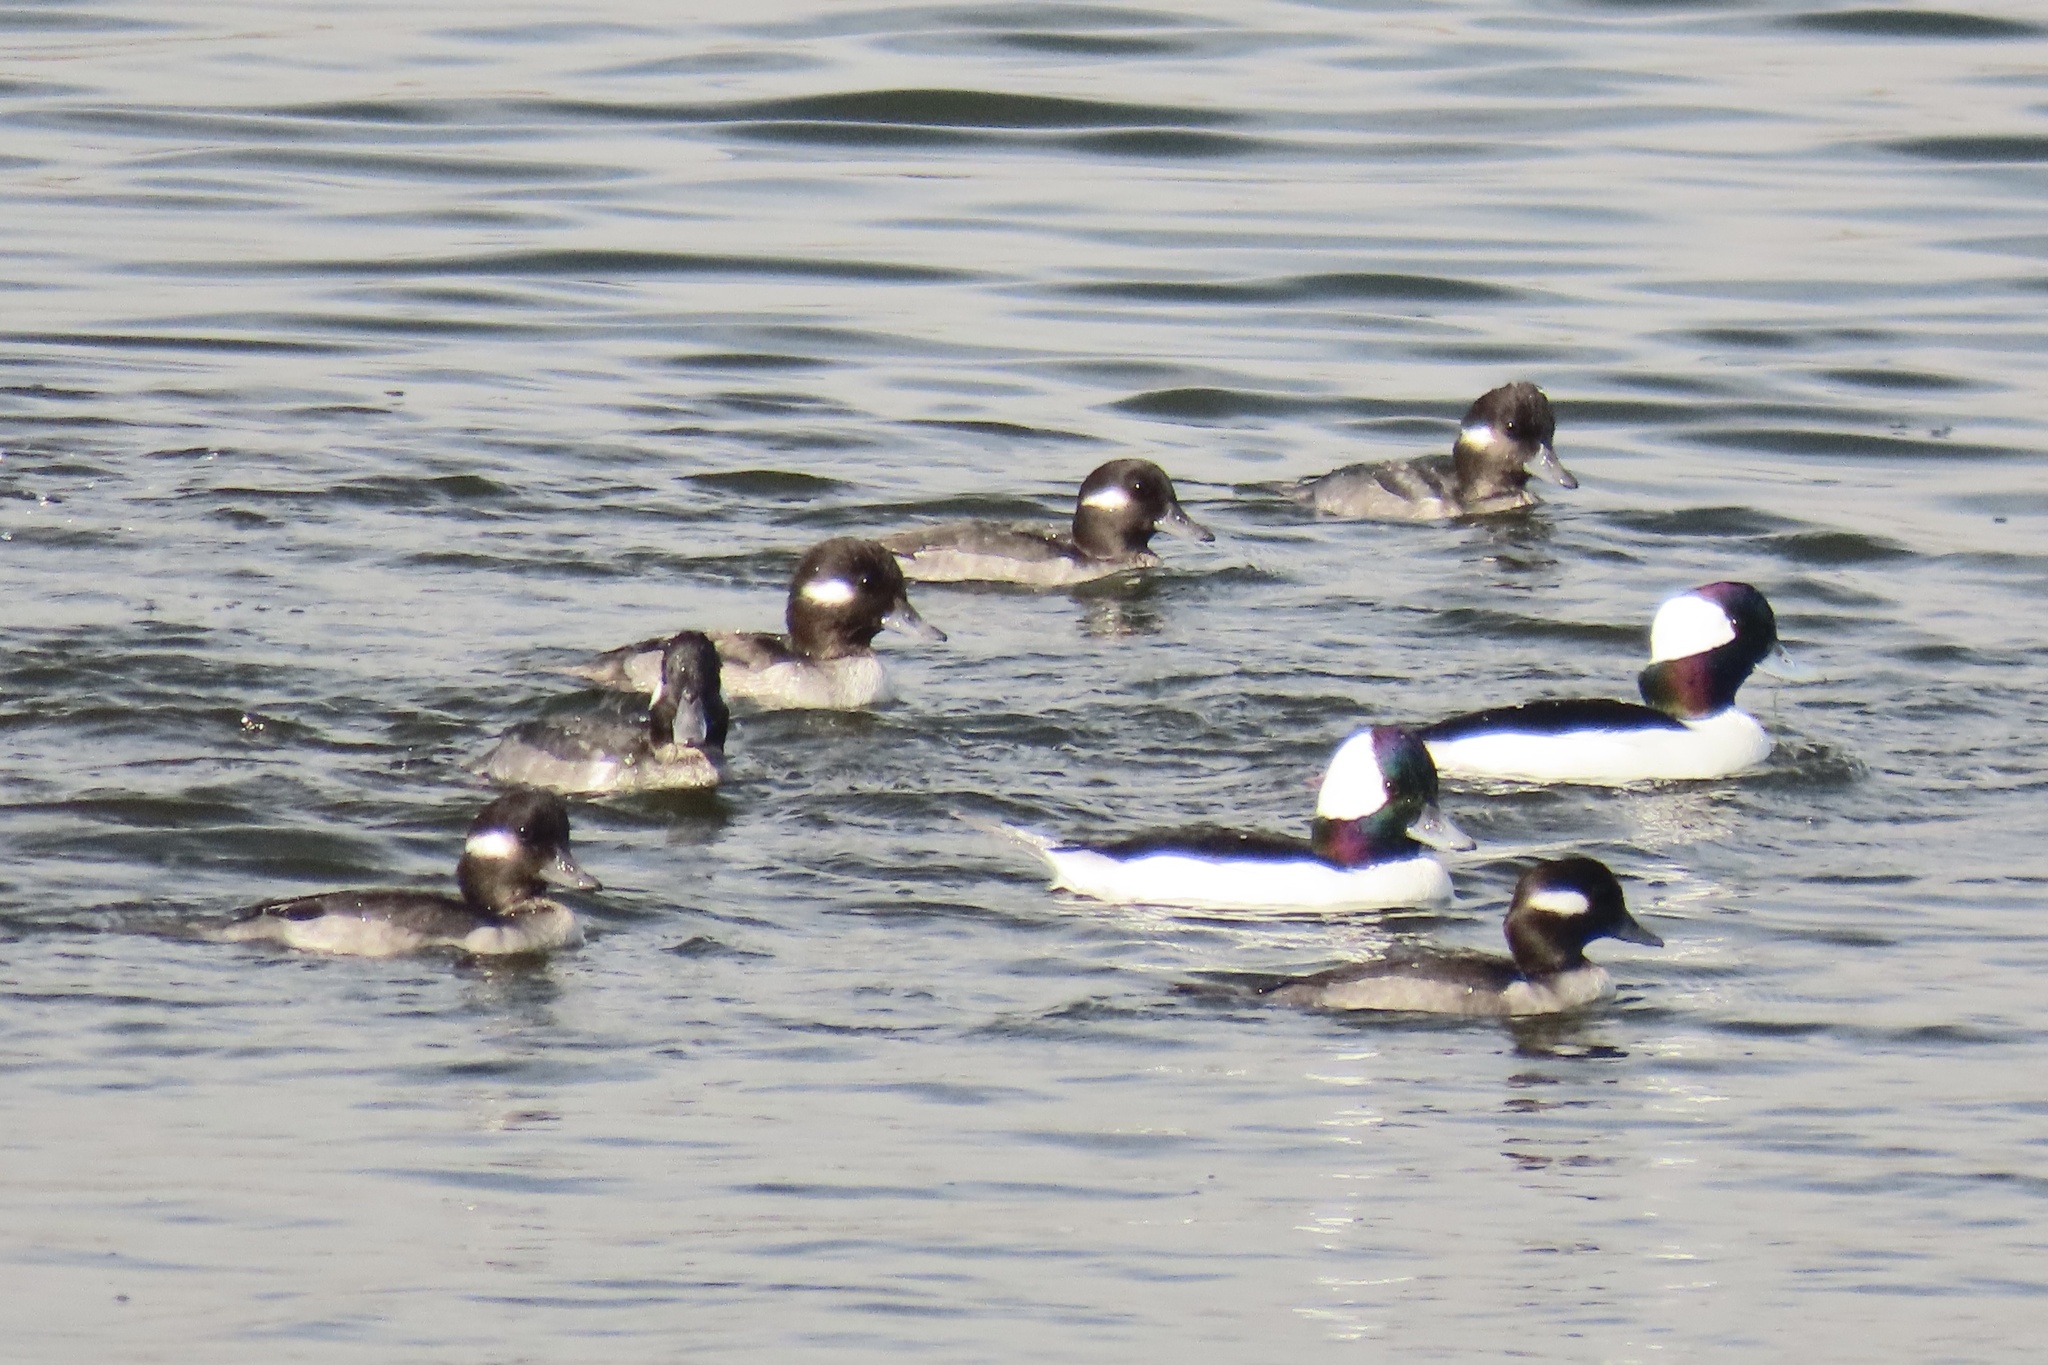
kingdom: Animalia
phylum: Chordata
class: Aves
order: Anseriformes
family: Anatidae
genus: Bucephala
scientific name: Bucephala albeola
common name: Bufflehead
